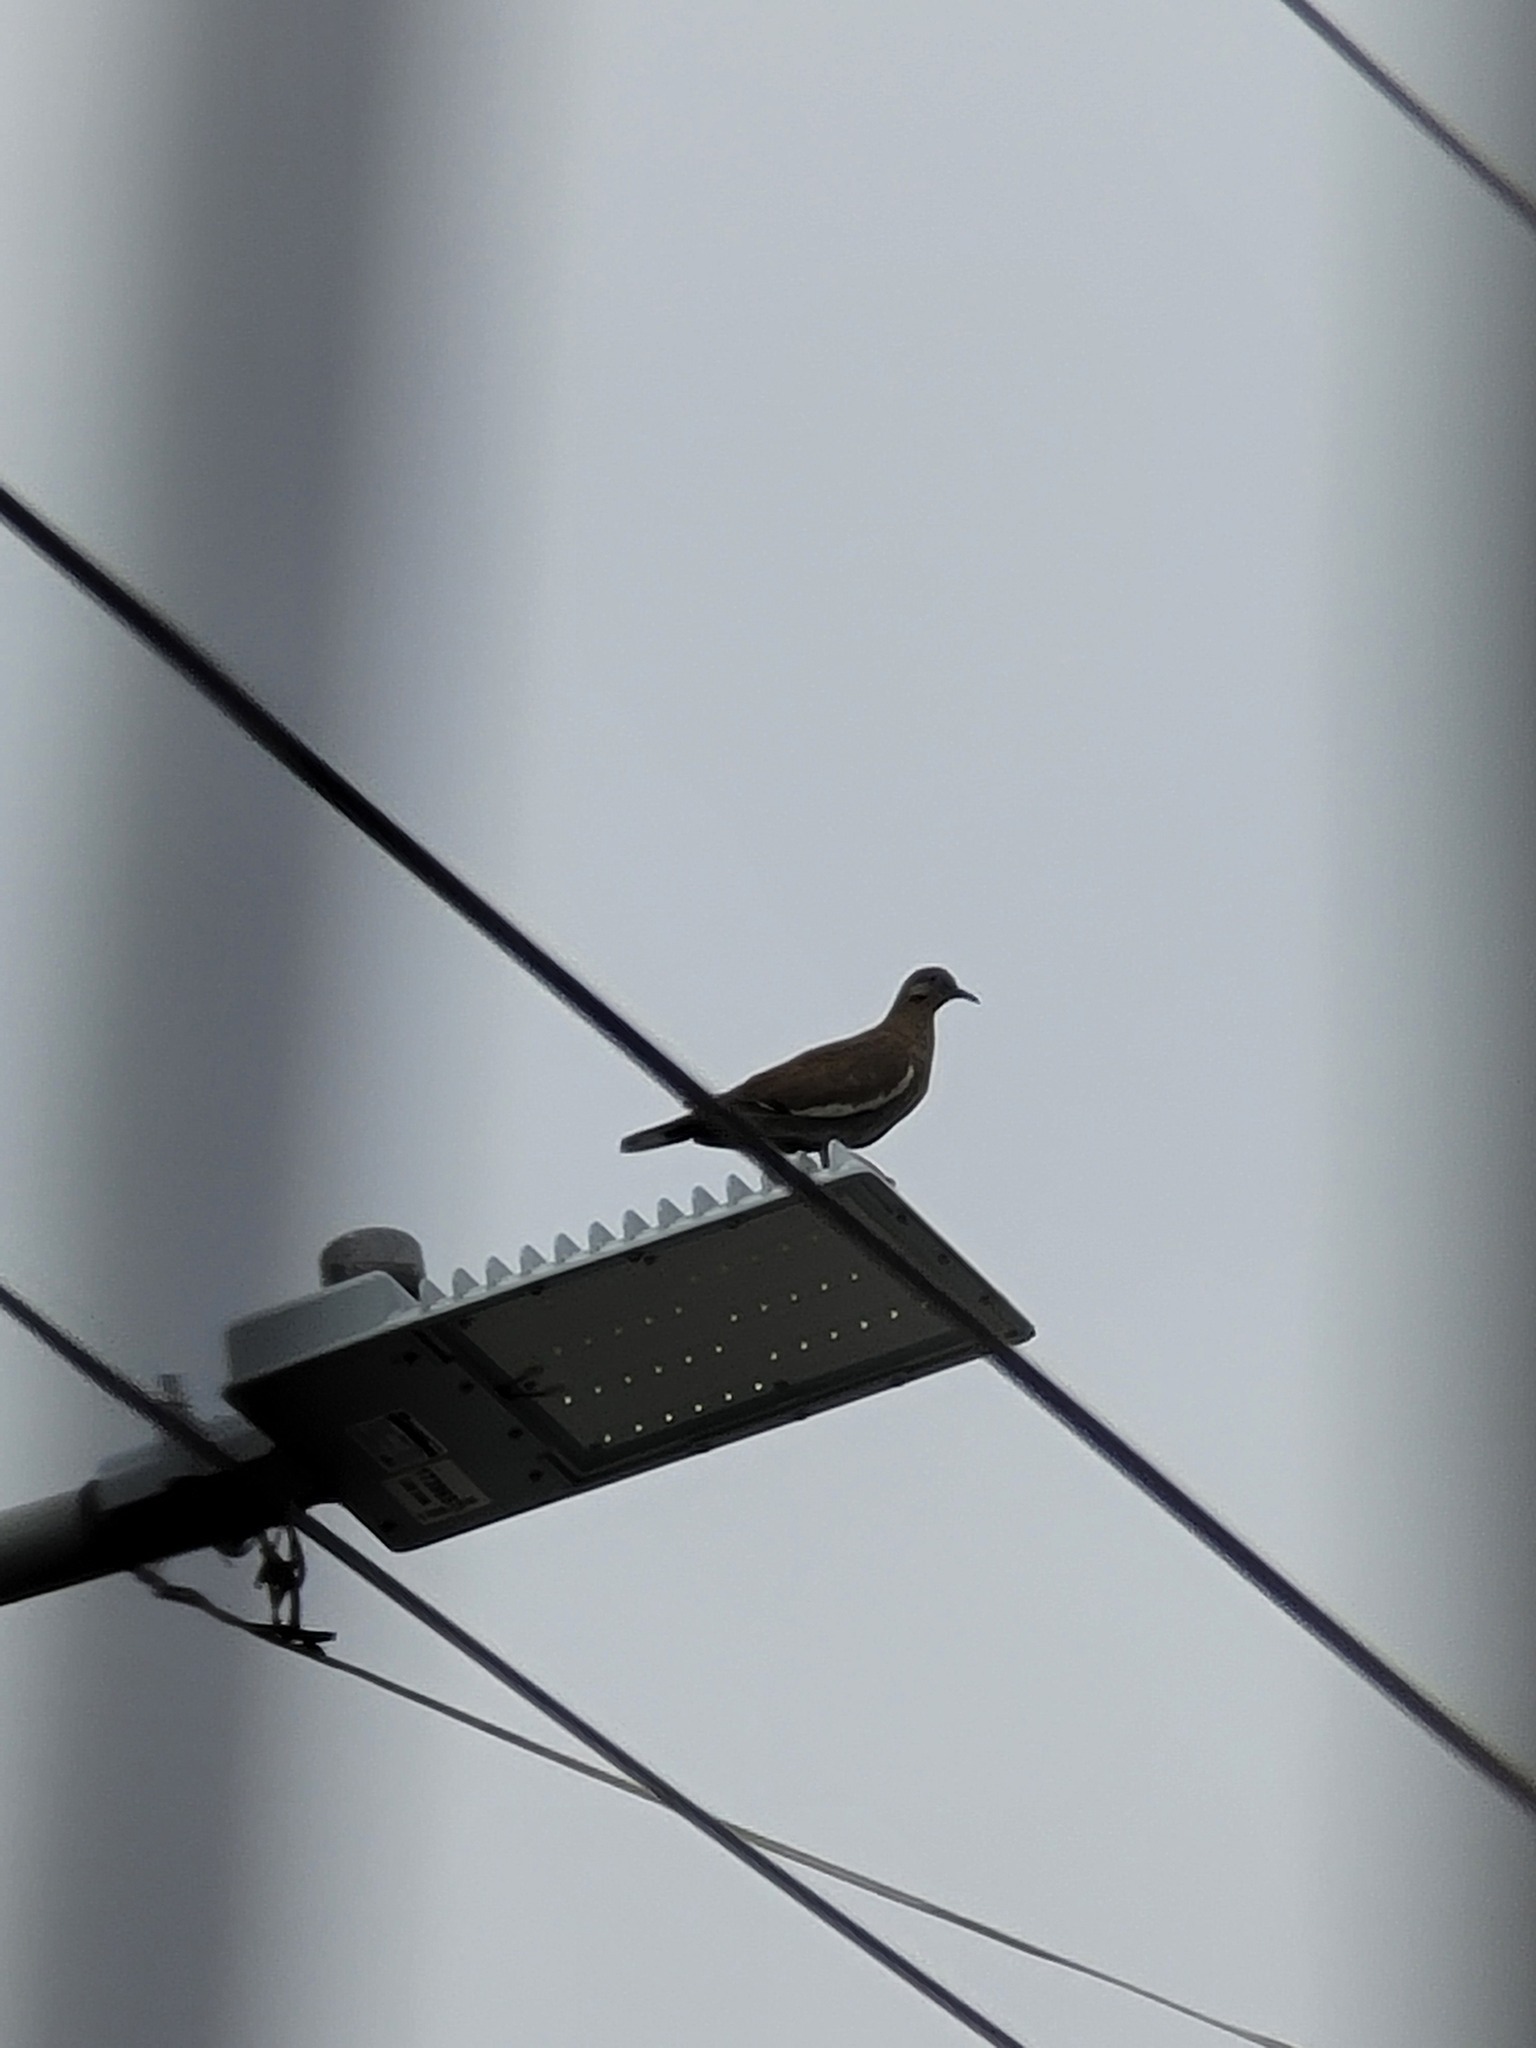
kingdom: Animalia
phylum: Chordata
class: Aves
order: Columbiformes
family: Columbidae
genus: Zenaida
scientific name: Zenaida asiatica
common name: White-winged dove
